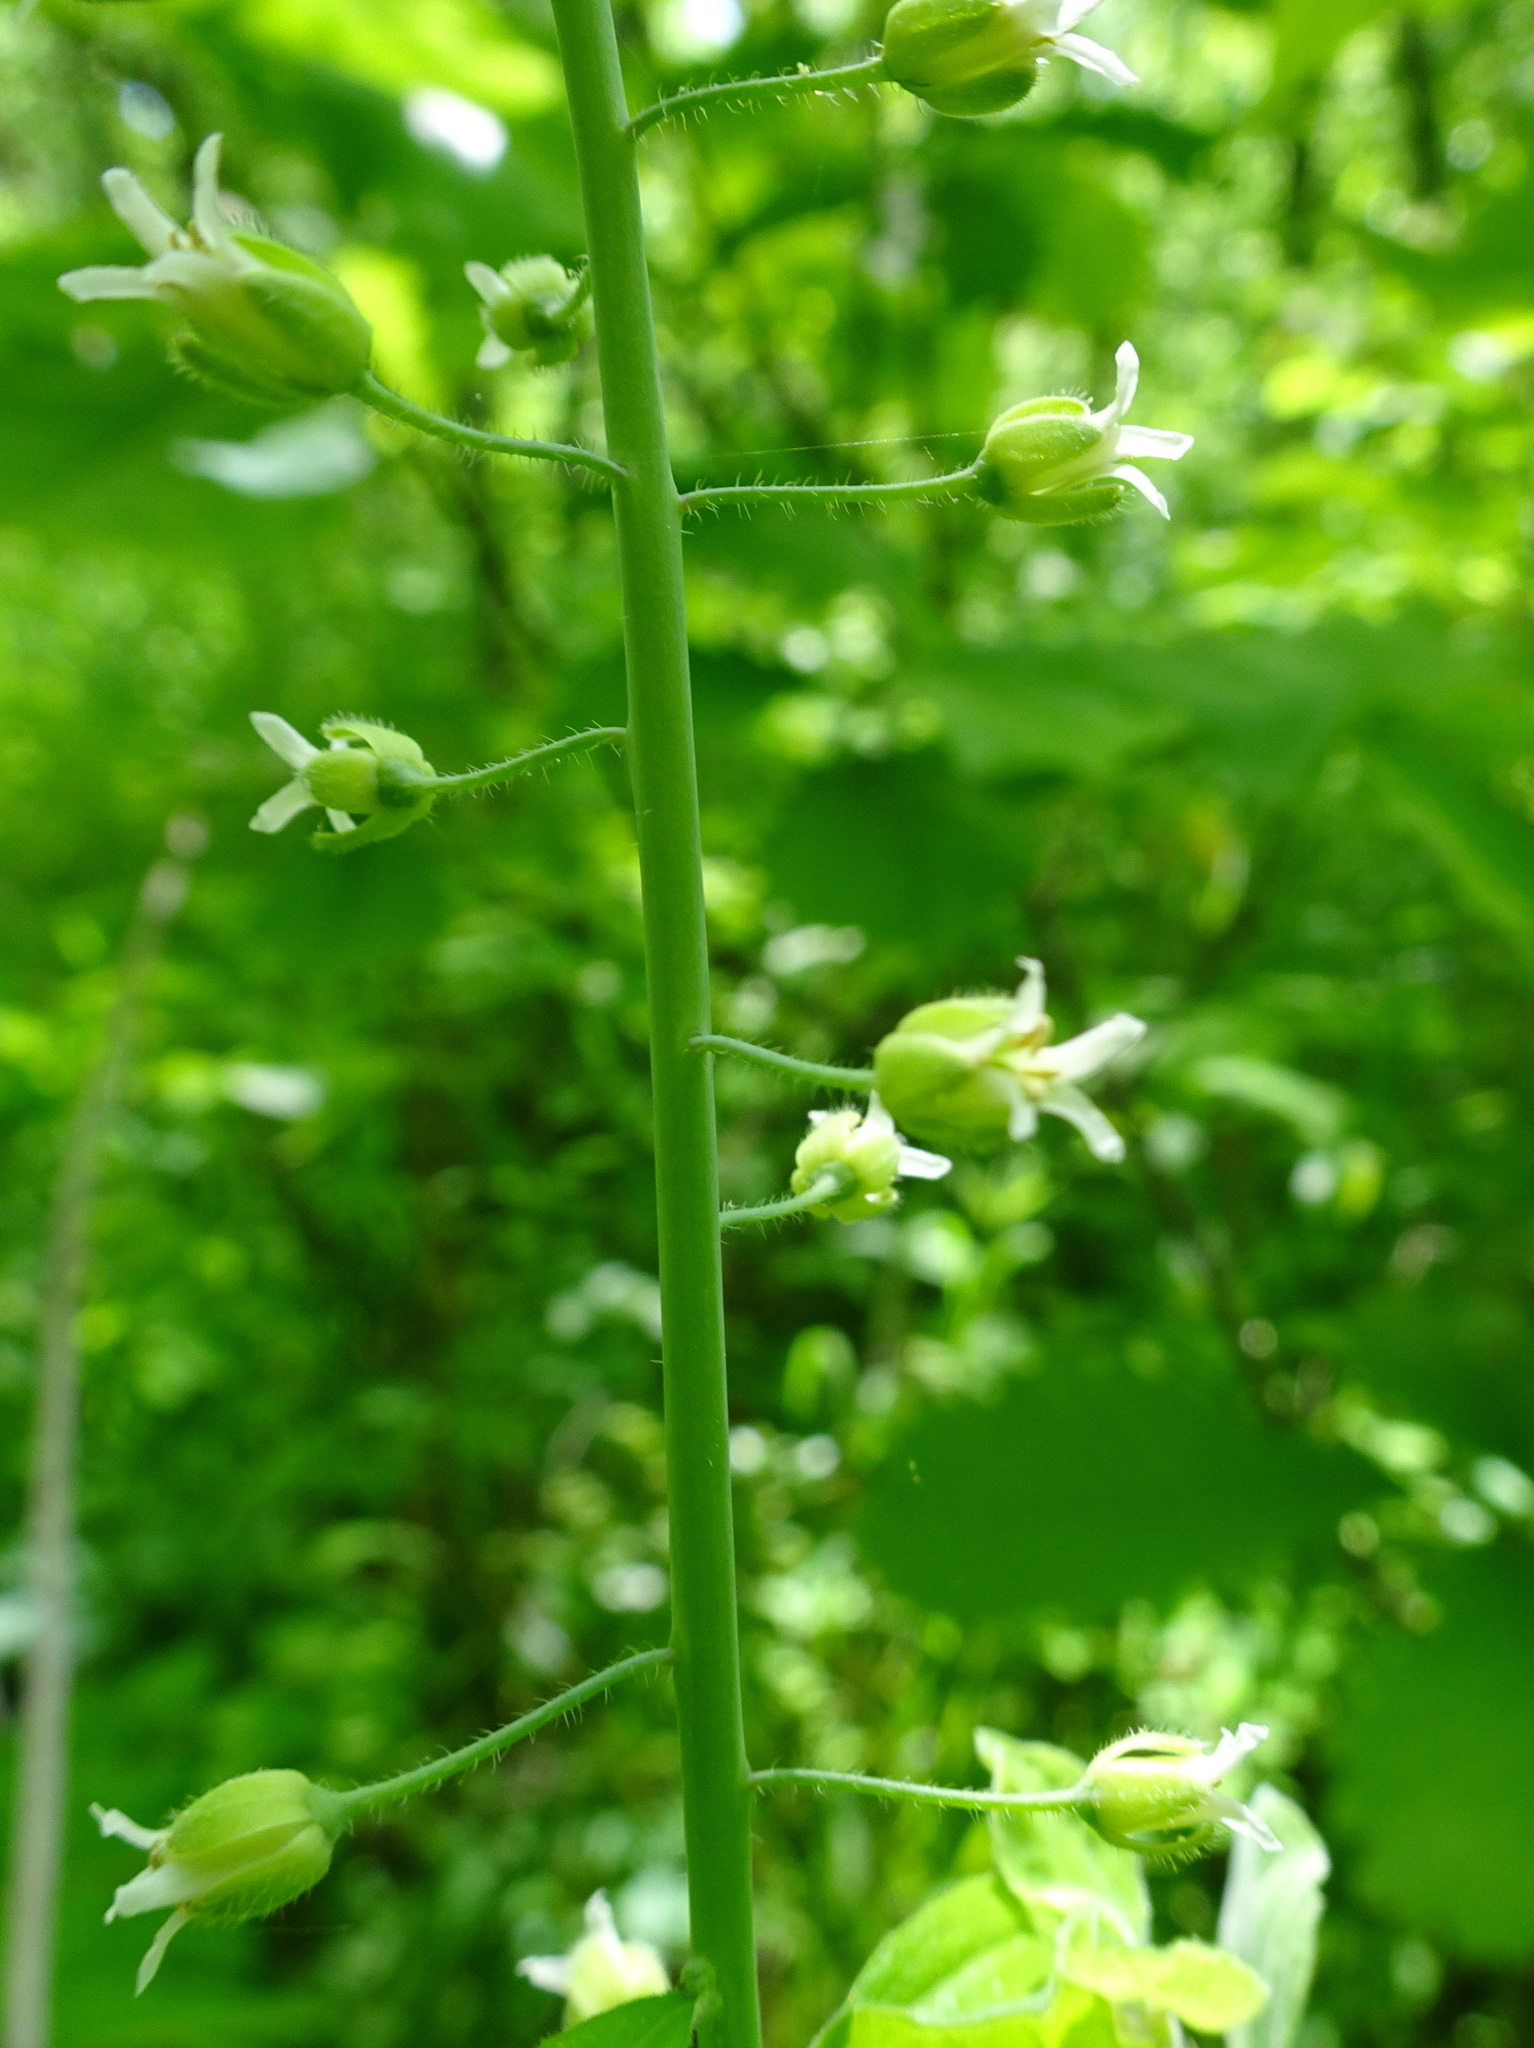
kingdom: Plantae
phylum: Tracheophyta
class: Magnoliopsida
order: Brassicales
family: Brassicaceae
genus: Borodinia
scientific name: Borodinia canadensis
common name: Sicklepod
